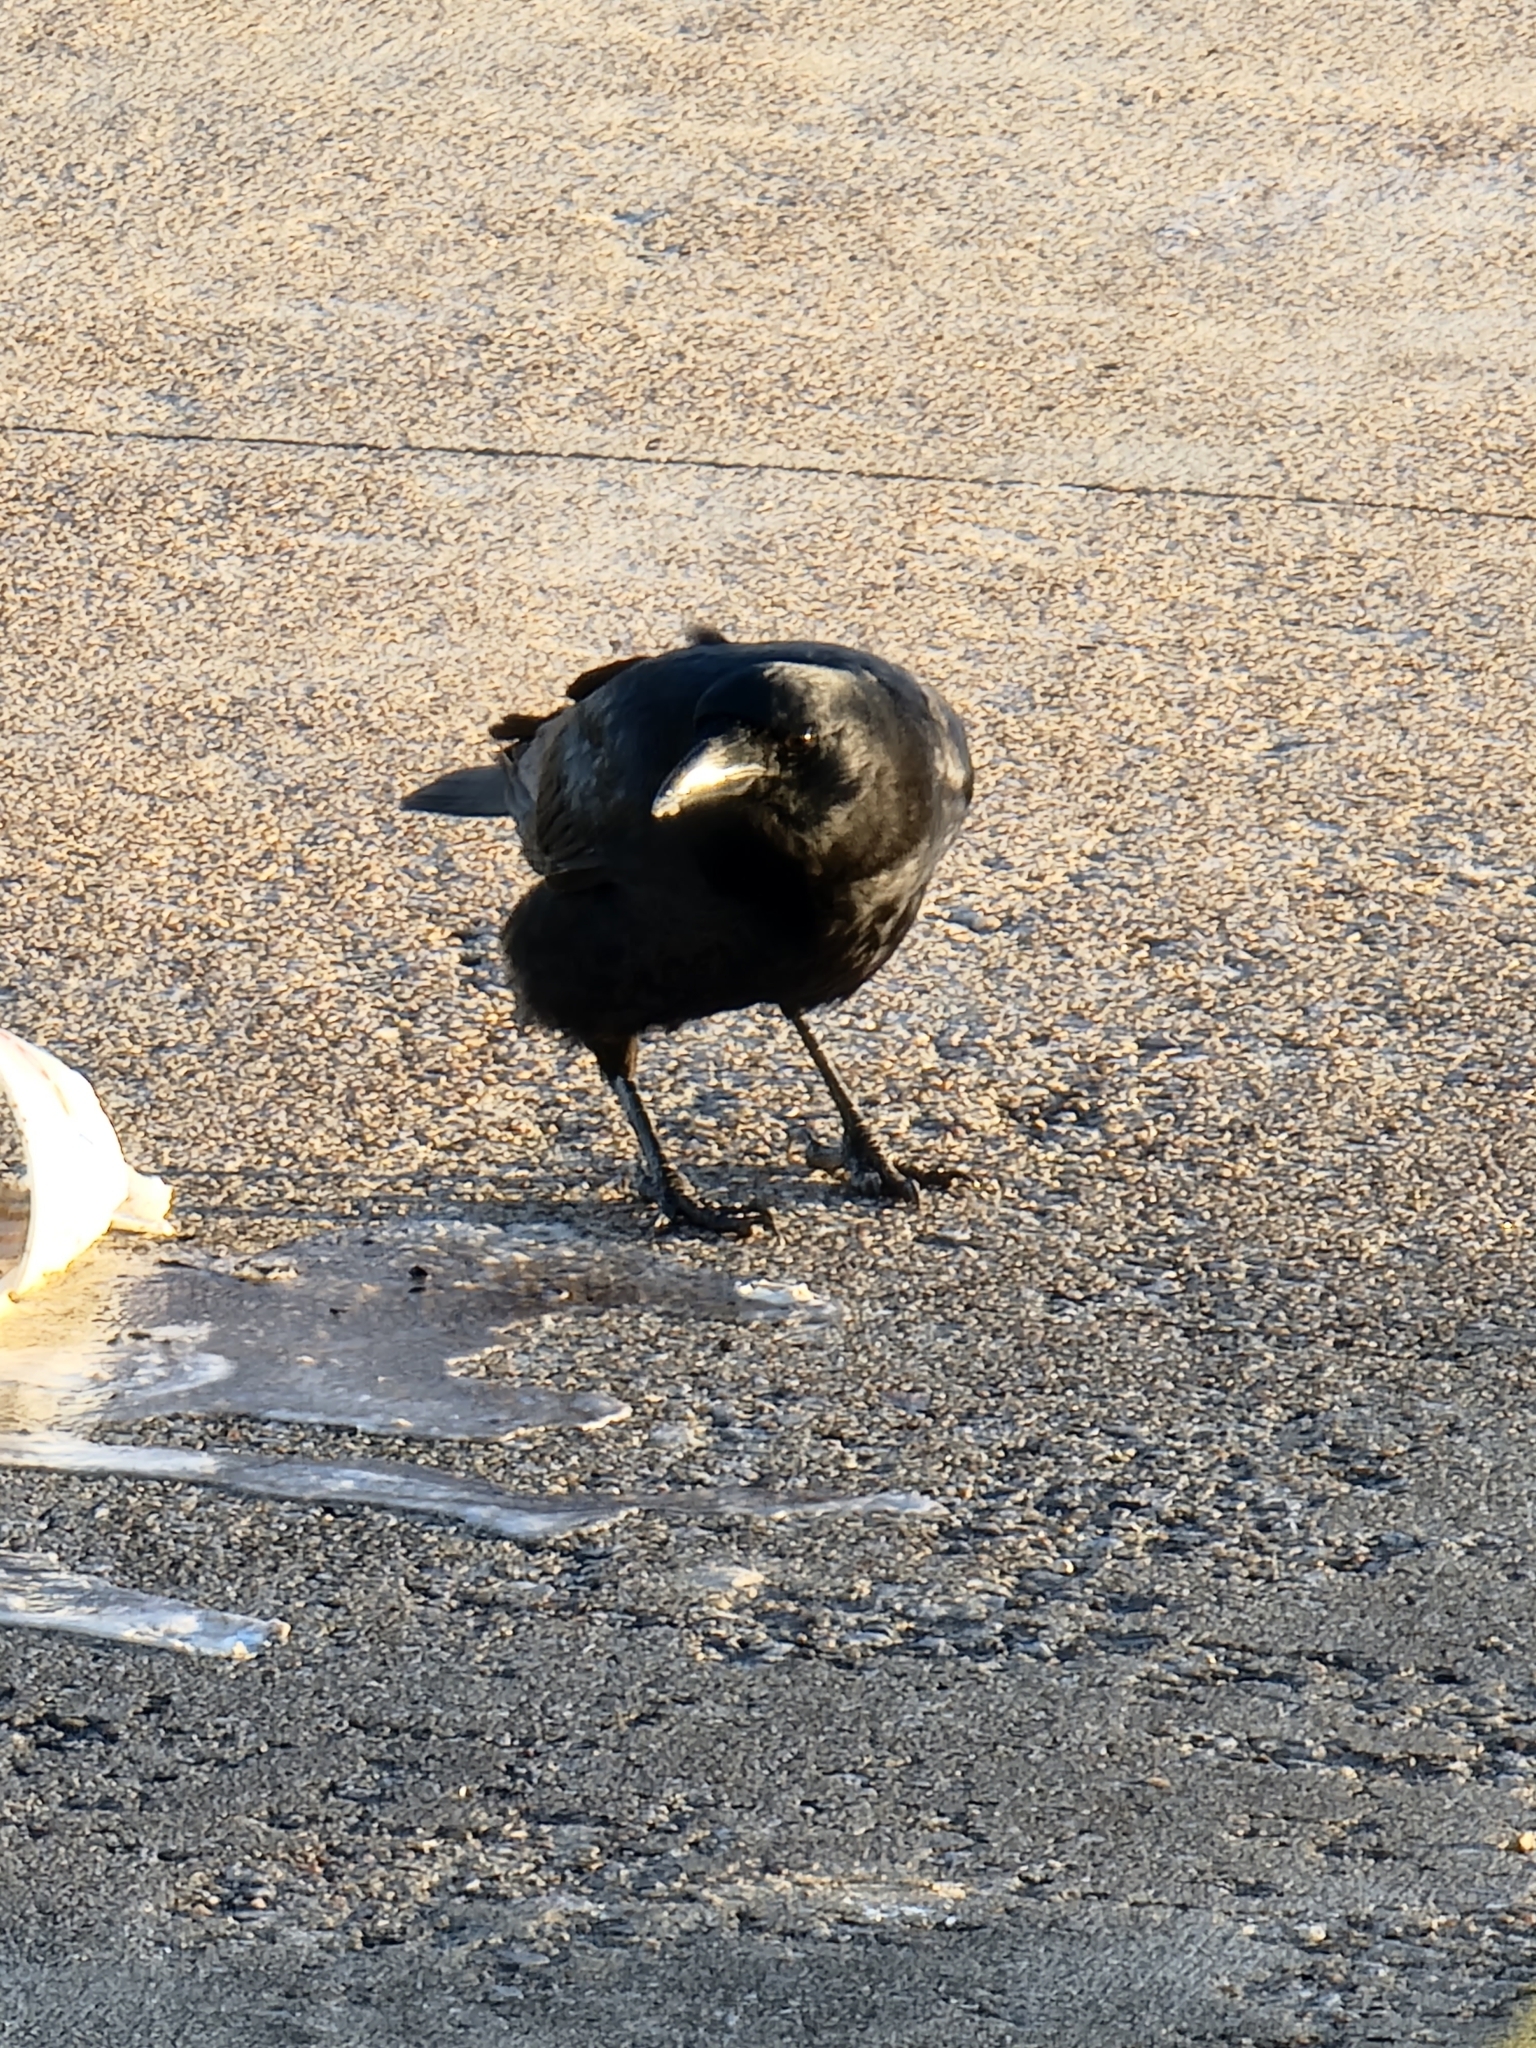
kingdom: Animalia
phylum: Chordata
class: Aves
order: Passeriformes
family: Corvidae
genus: Corvus
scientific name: Corvus brachyrhynchos
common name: American crow
